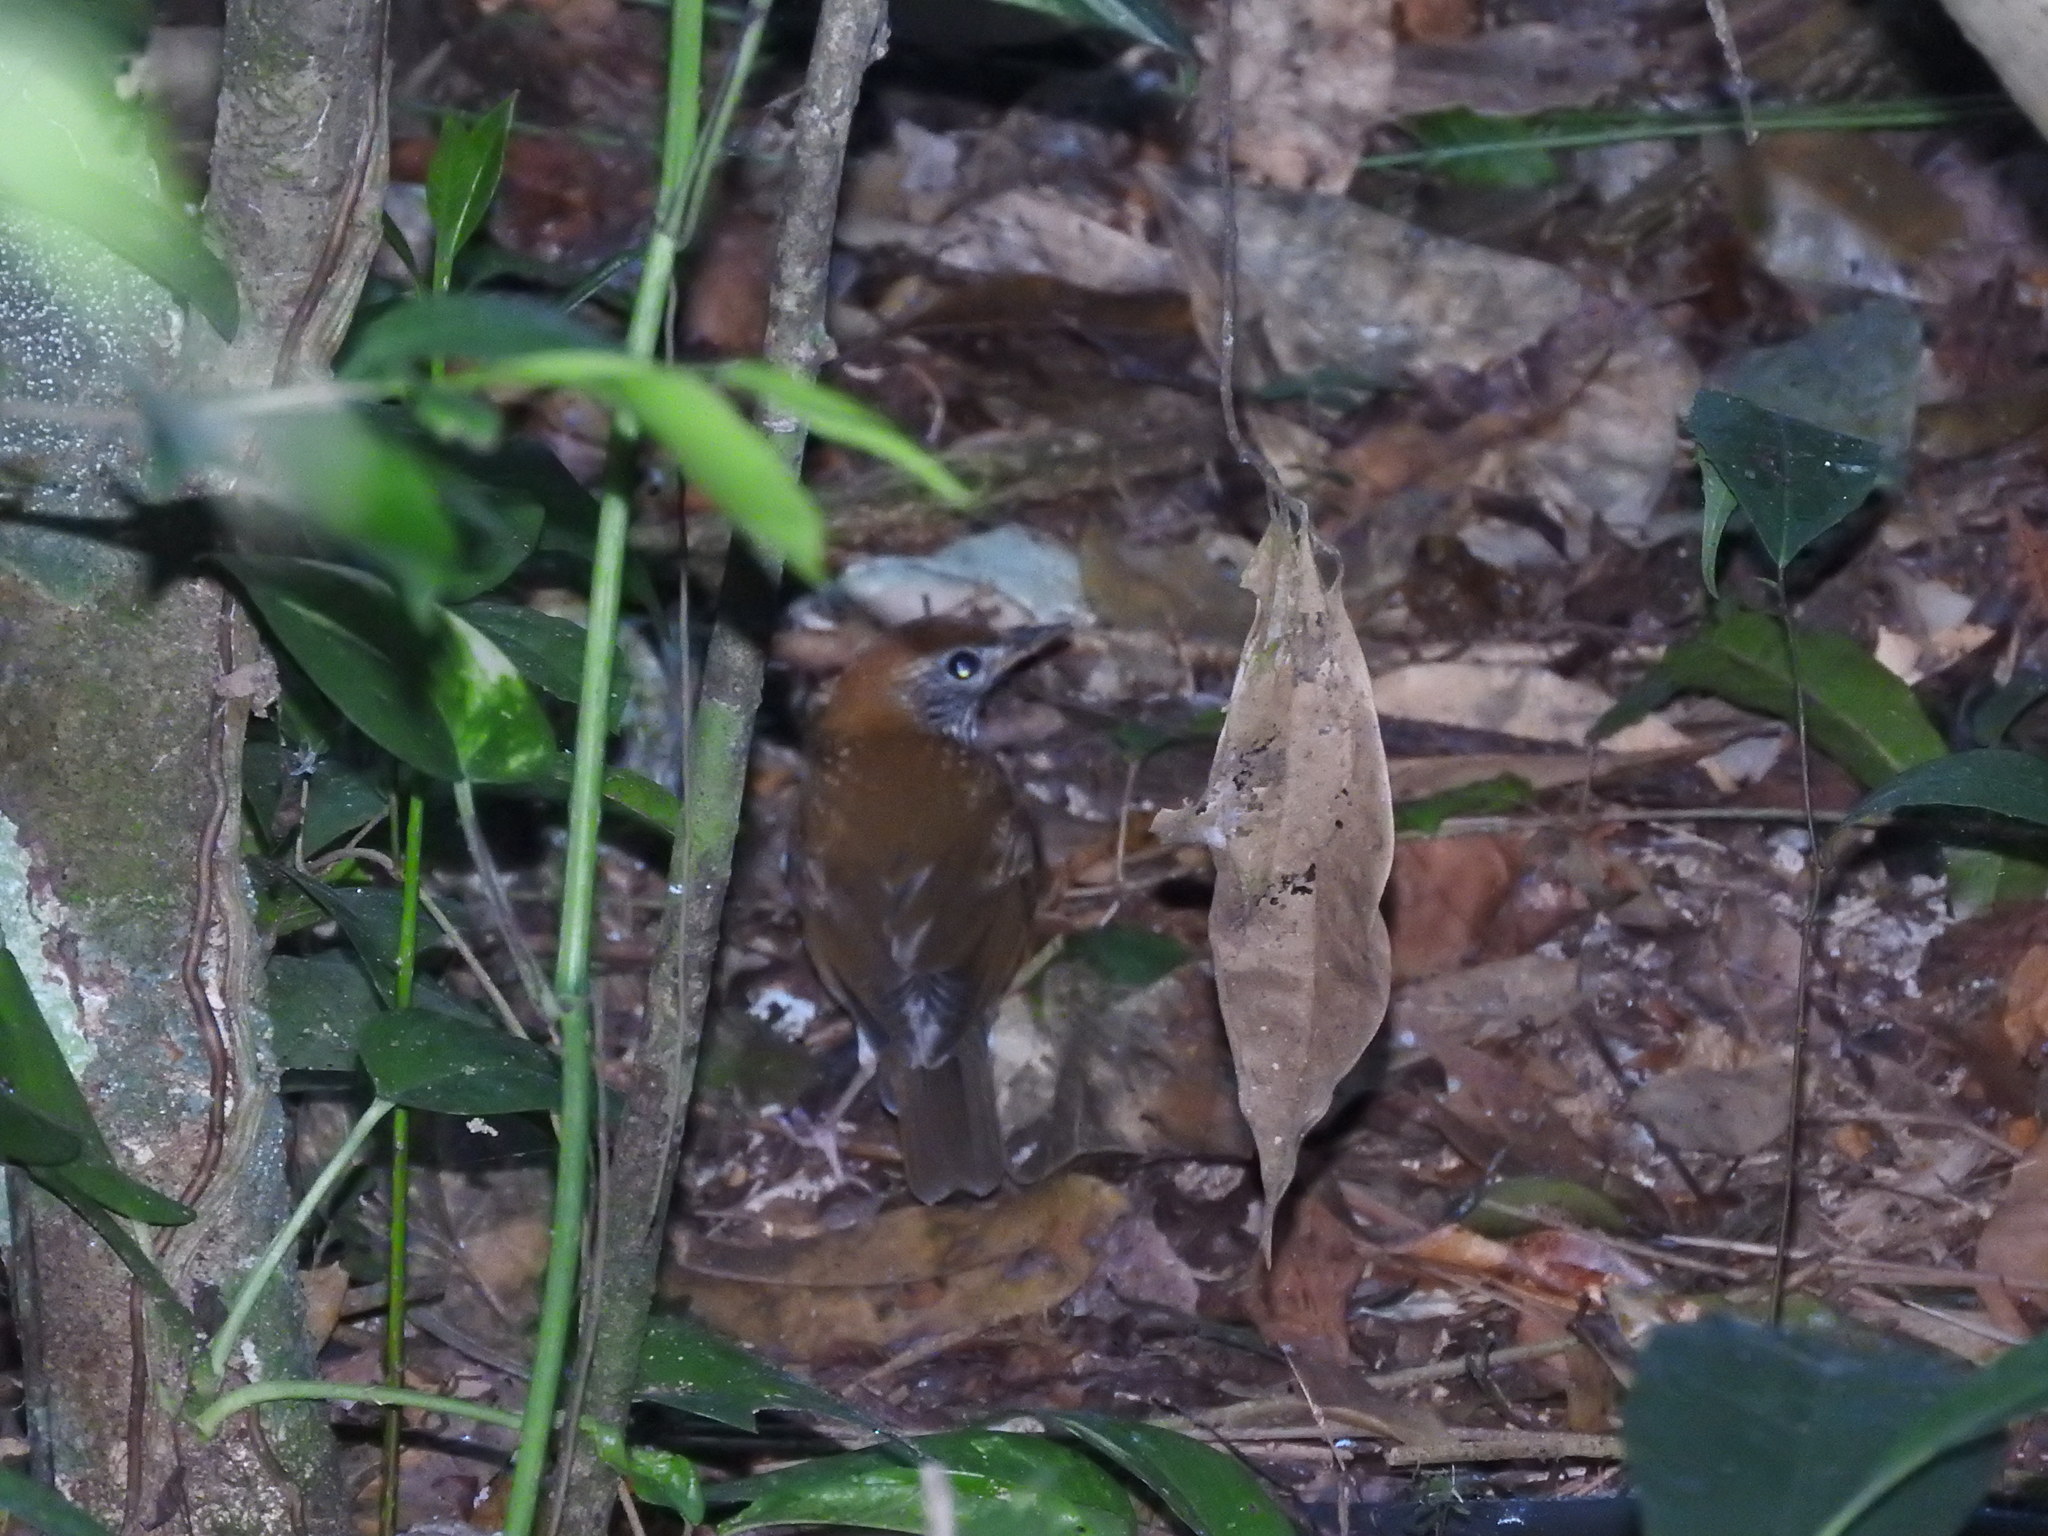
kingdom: Animalia
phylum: Chordata
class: Aves
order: Passeriformes
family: Turdidae
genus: Hylocichla
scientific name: Hylocichla mustelina
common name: Wood thrush
